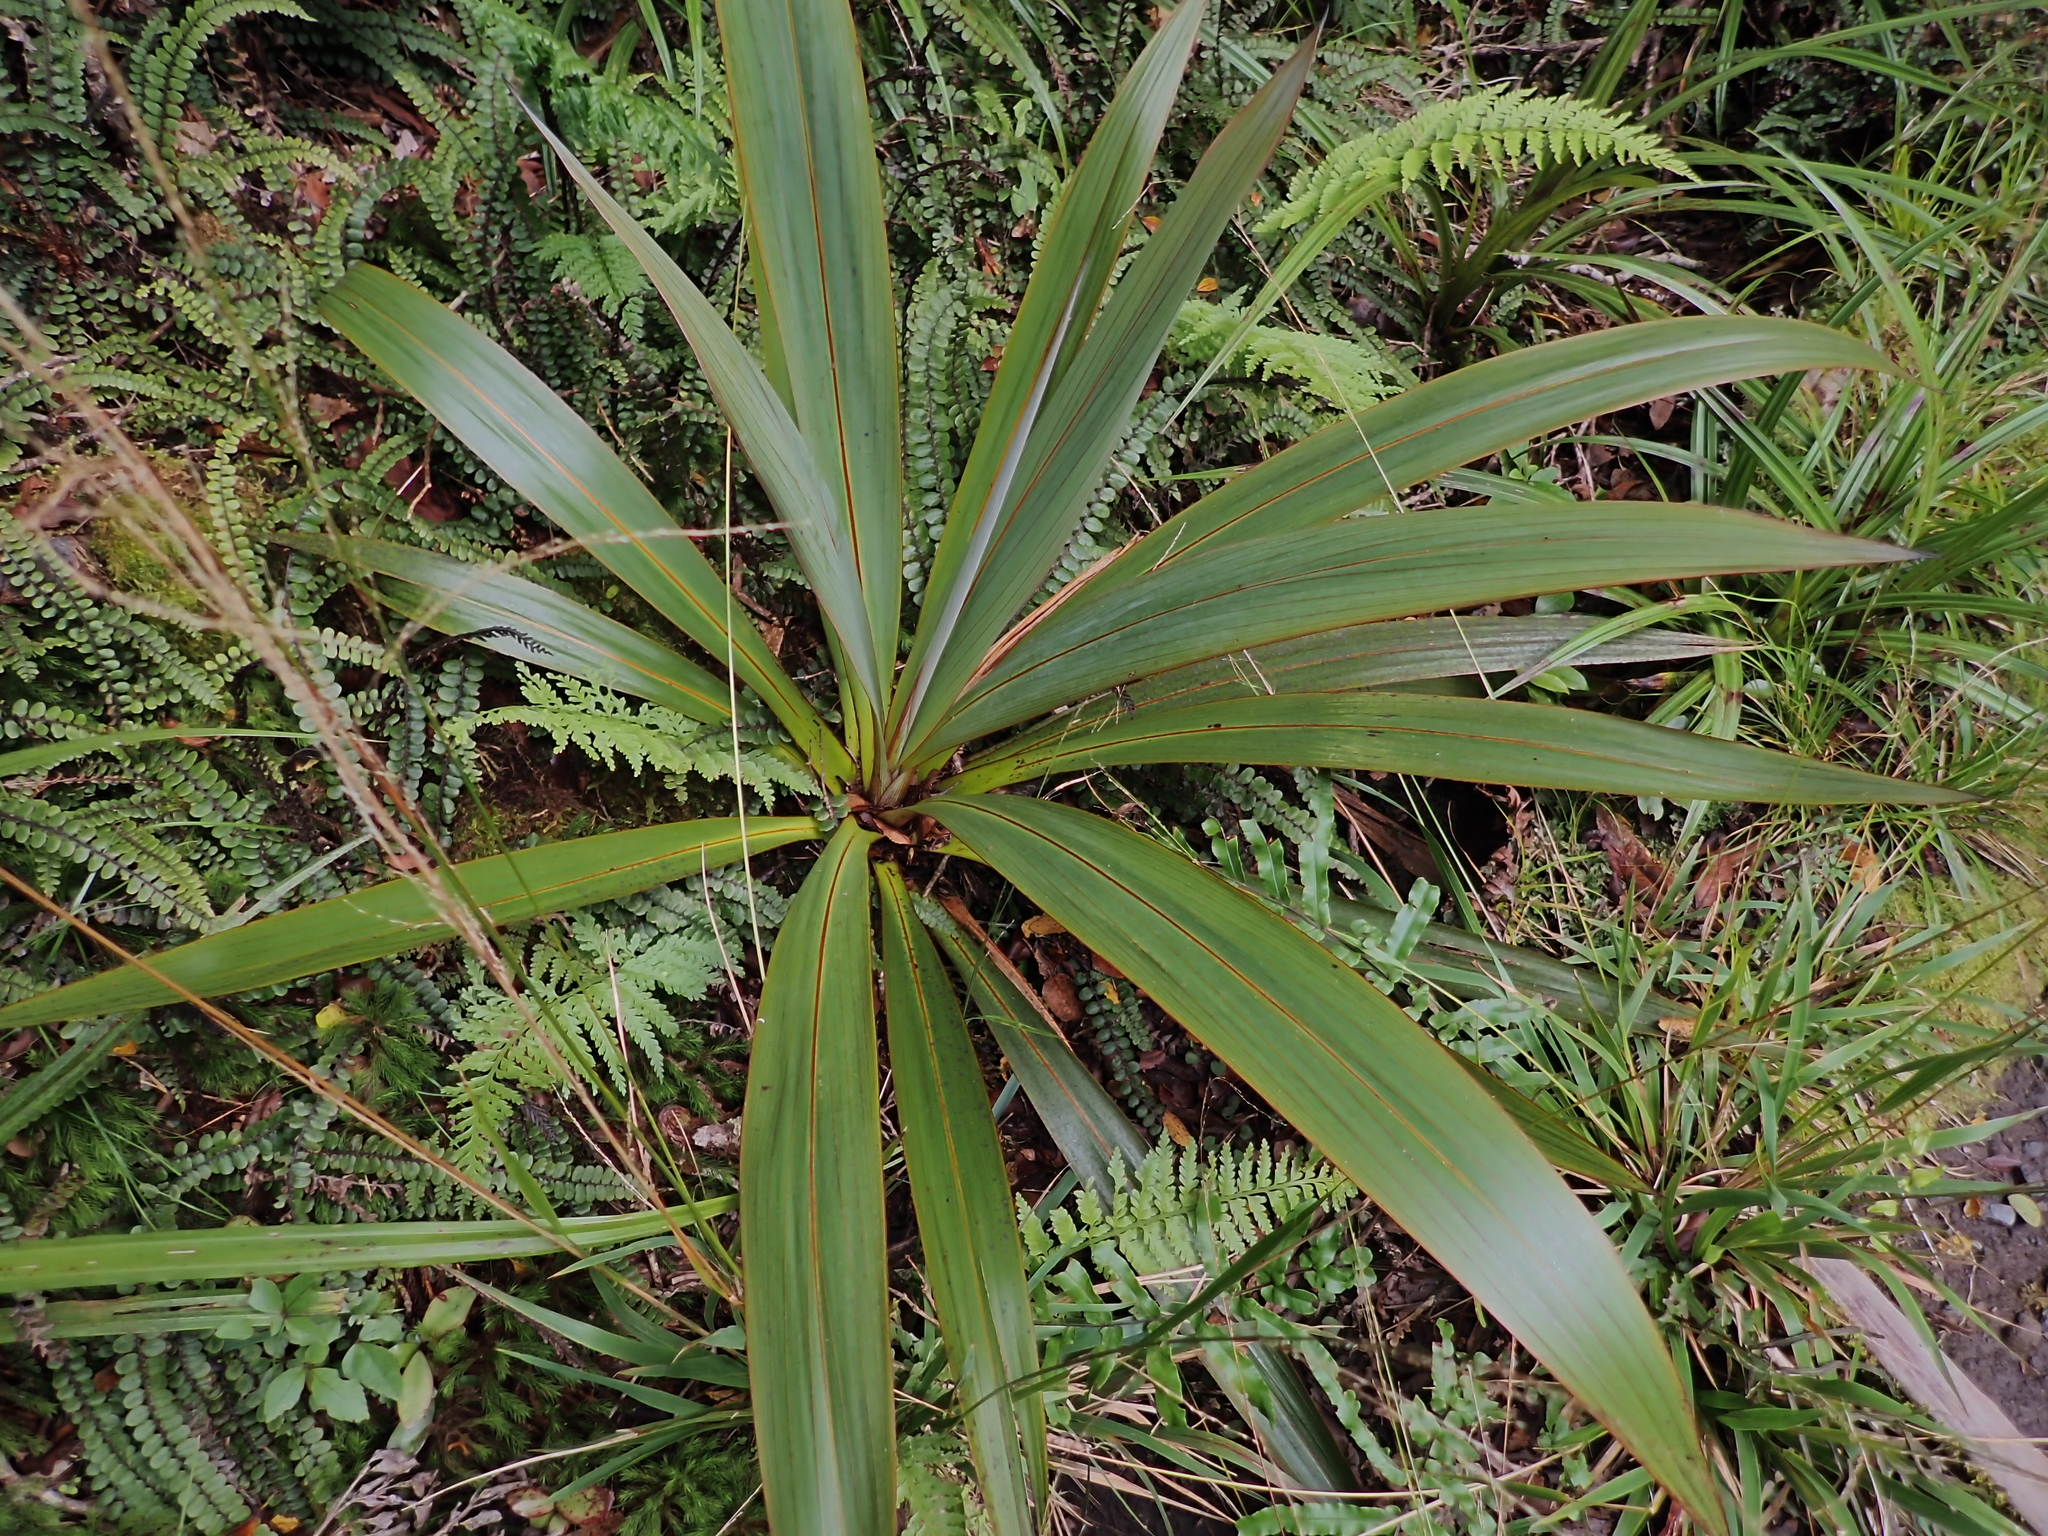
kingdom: Plantae
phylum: Tracheophyta
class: Liliopsida
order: Asparagales
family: Asparagaceae
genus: Cordyline
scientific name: Cordyline indivisa
